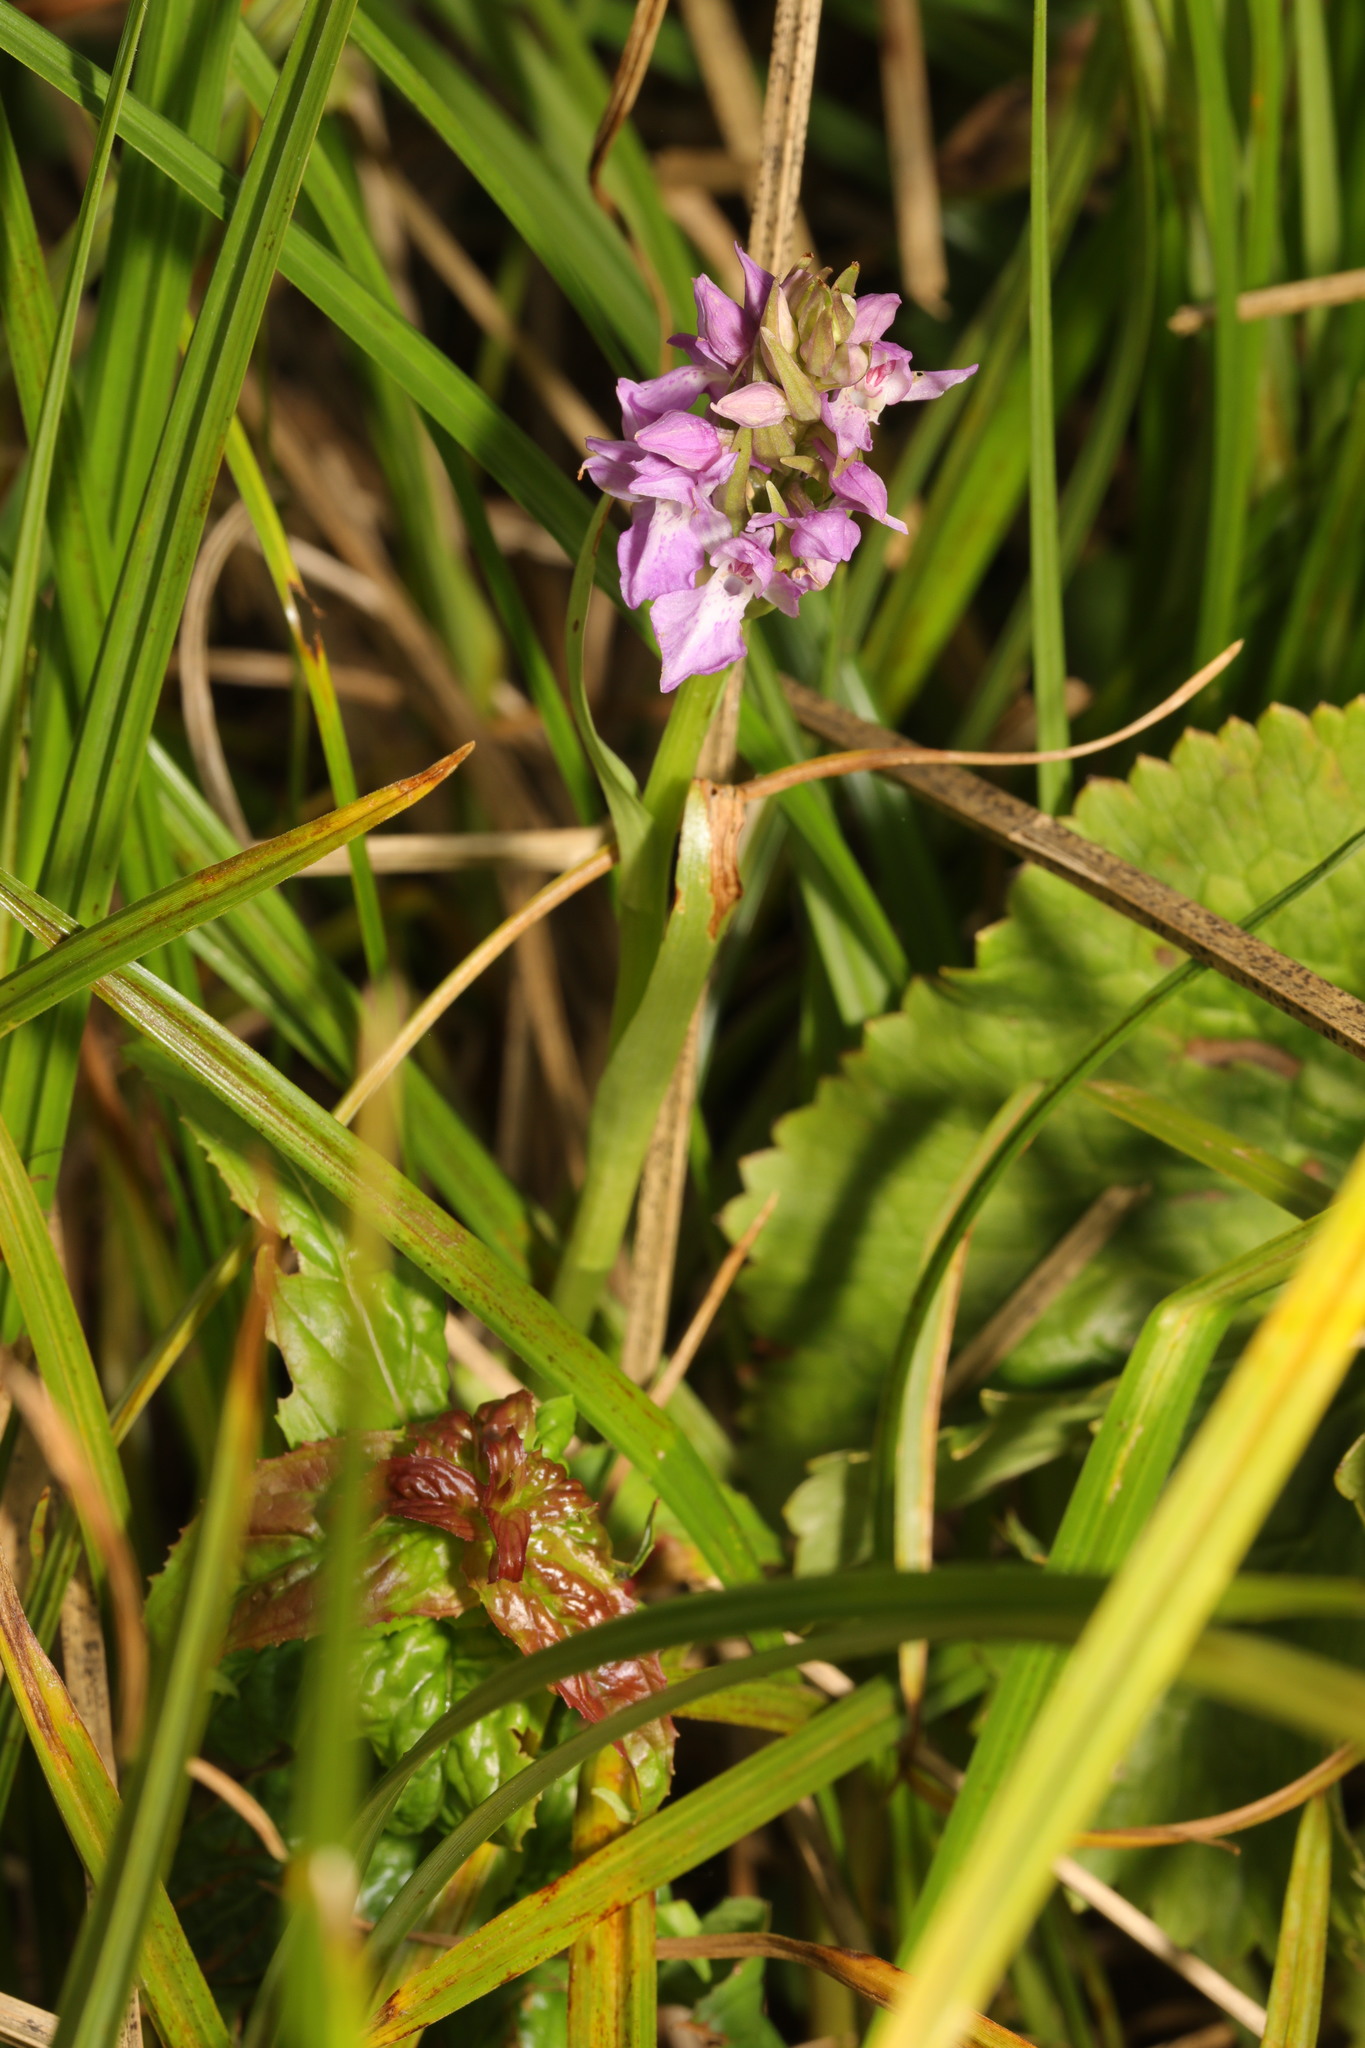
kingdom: Plantae
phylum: Tracheophyta
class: Liliopsida
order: Asparagales
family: Orchidaceae
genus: Dactylorhiza
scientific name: Dactylorhiza majalis
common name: Marsh orchid
